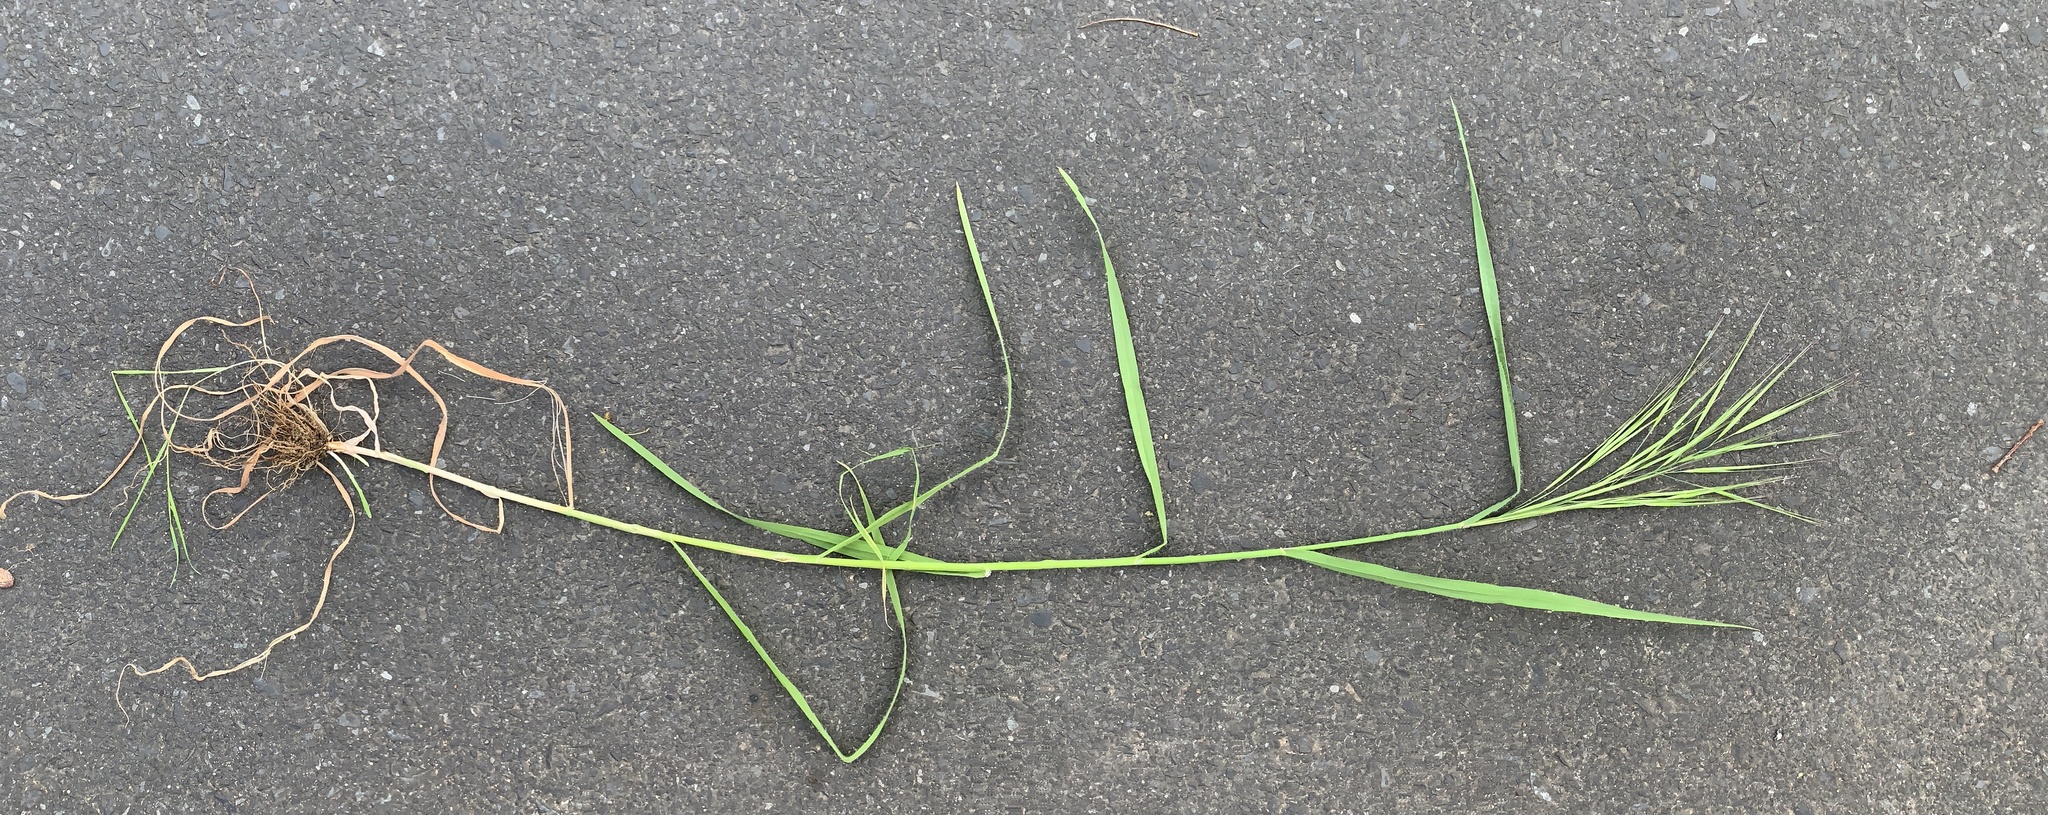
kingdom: Plantae
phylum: Tracheophyta
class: Liliopsida
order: Poales
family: Poaceae
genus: Bromus
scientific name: Bromus diandrus
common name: Ripgut brome
